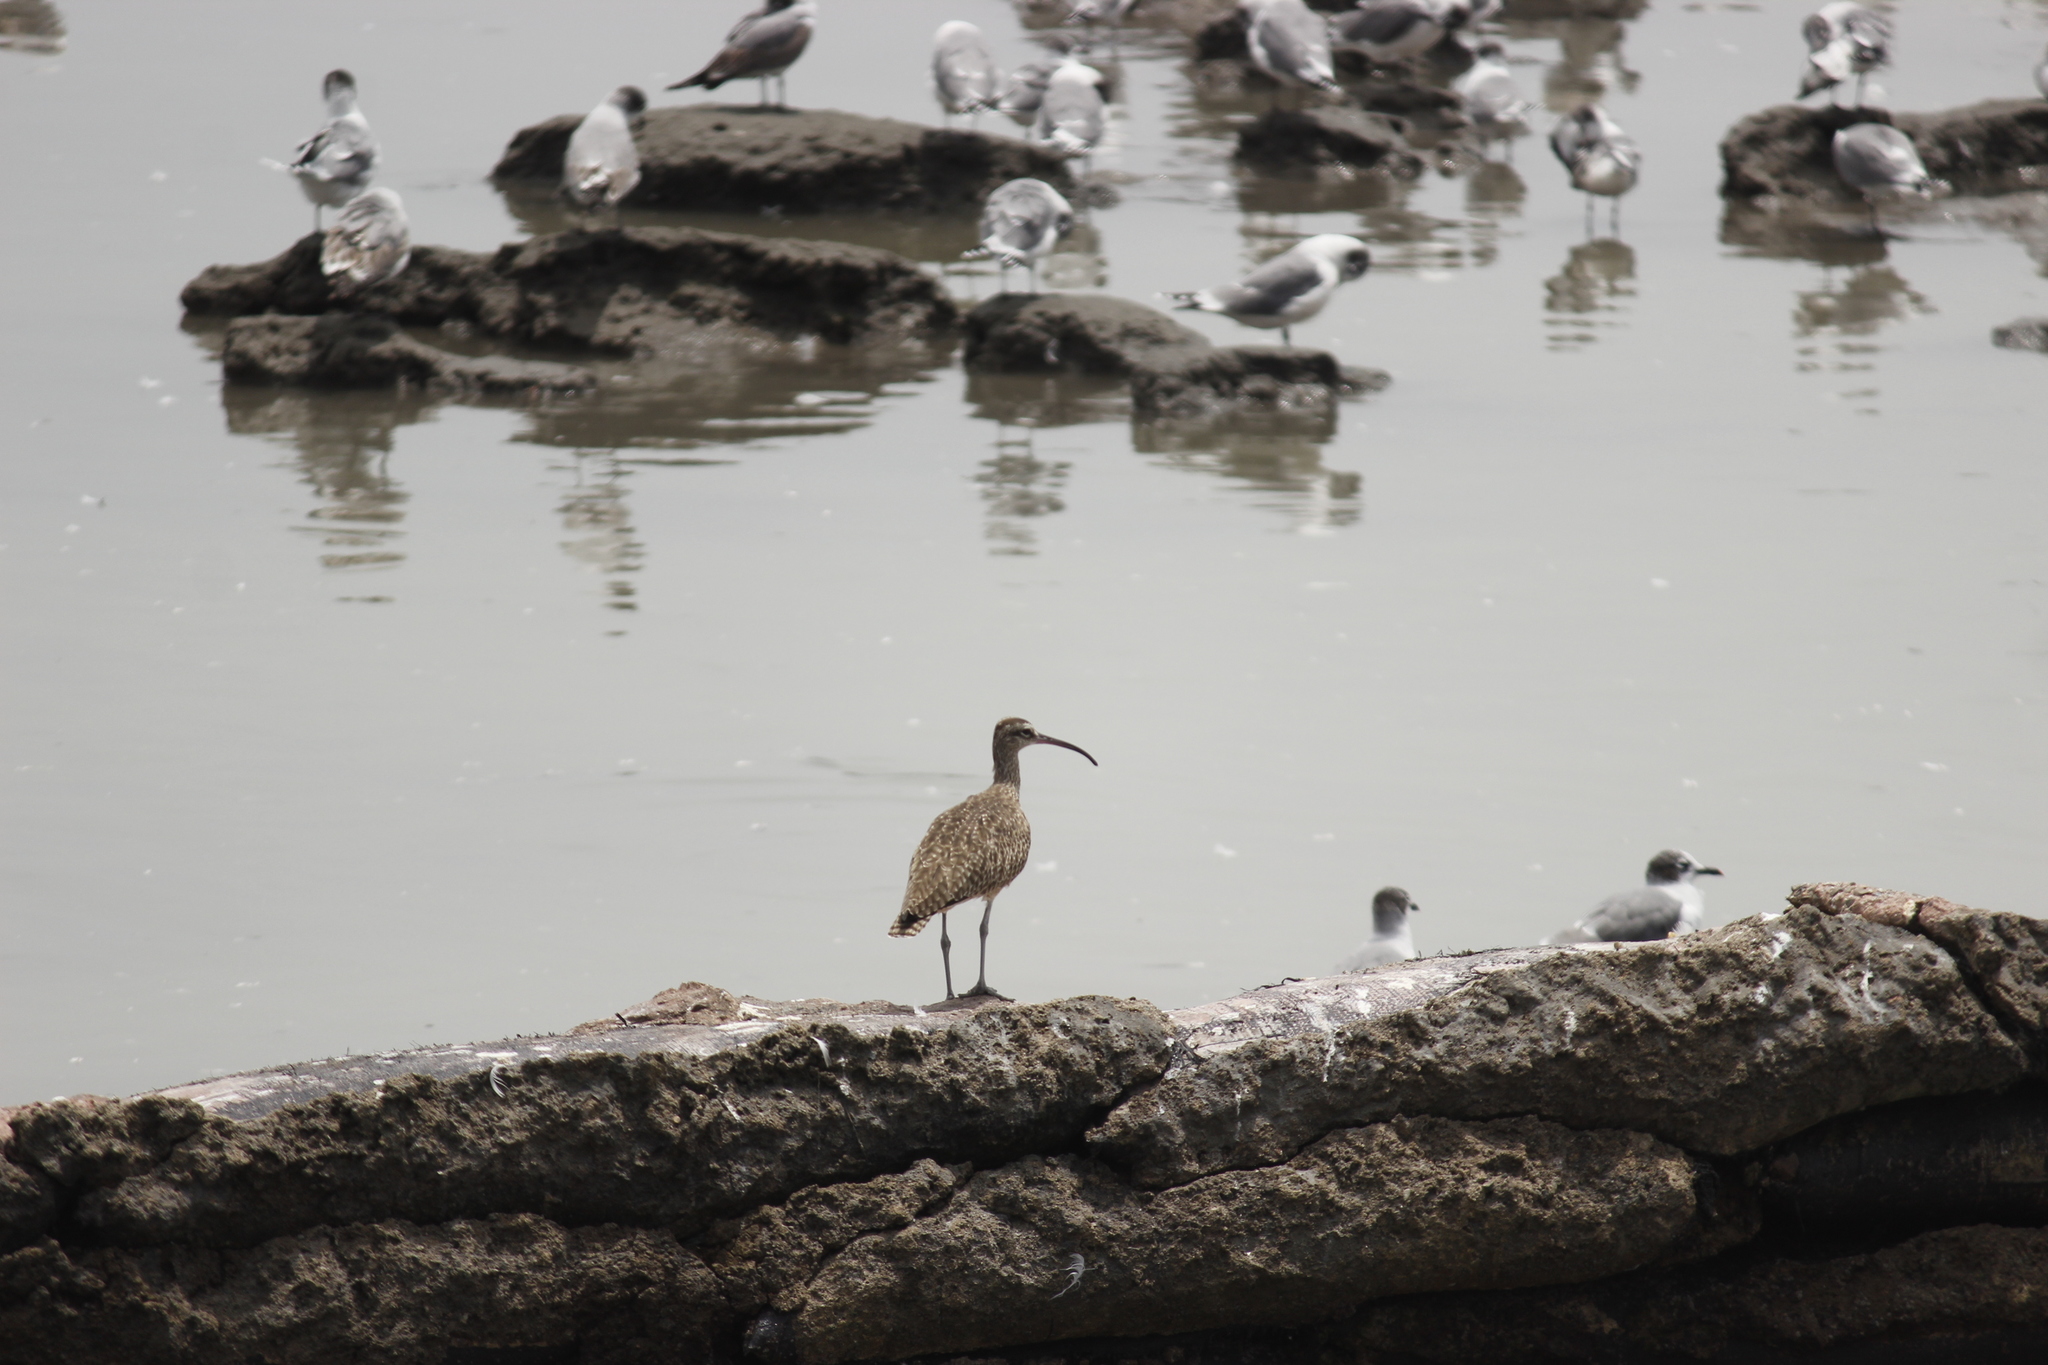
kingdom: Animalia
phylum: Chordata
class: Aves
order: Charadriiformes
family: Scolopacidae
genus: Numenius
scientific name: Numenius phaeopus
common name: Whimbrel
